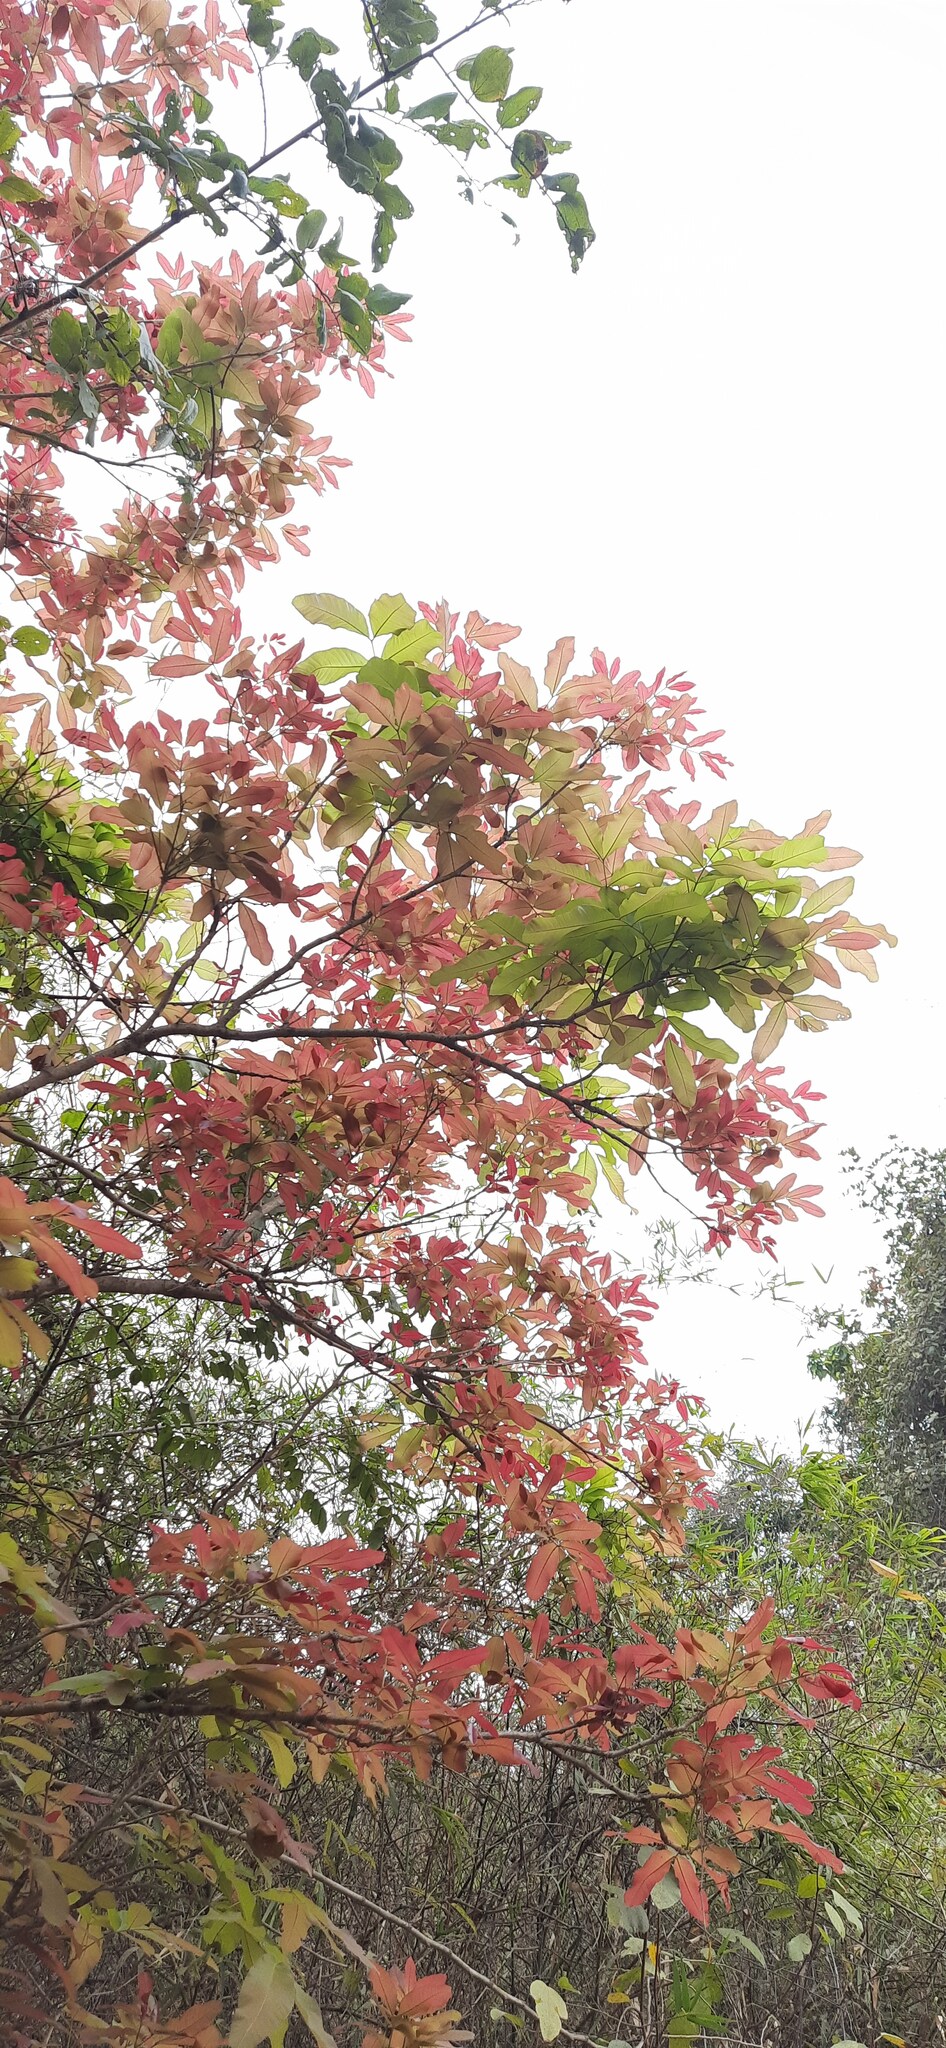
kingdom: Plantae
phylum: Tracheophyta
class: Magnoliopsida
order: Sapindales
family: Sapindaceae
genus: Schleichera
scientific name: Schleichera oleosa
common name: Malay lactree
